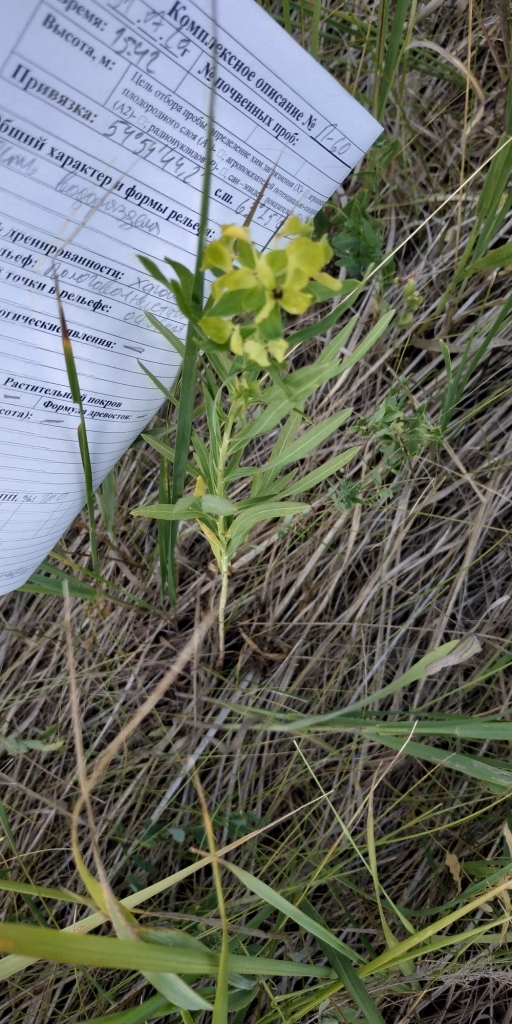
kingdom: Plantae
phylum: Tracheophyta
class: Magnoliopsida
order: Malpighiales
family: Euphorbiaceae
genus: Euphorbia
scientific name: Euphorbia virgata
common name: Leafy spurge
